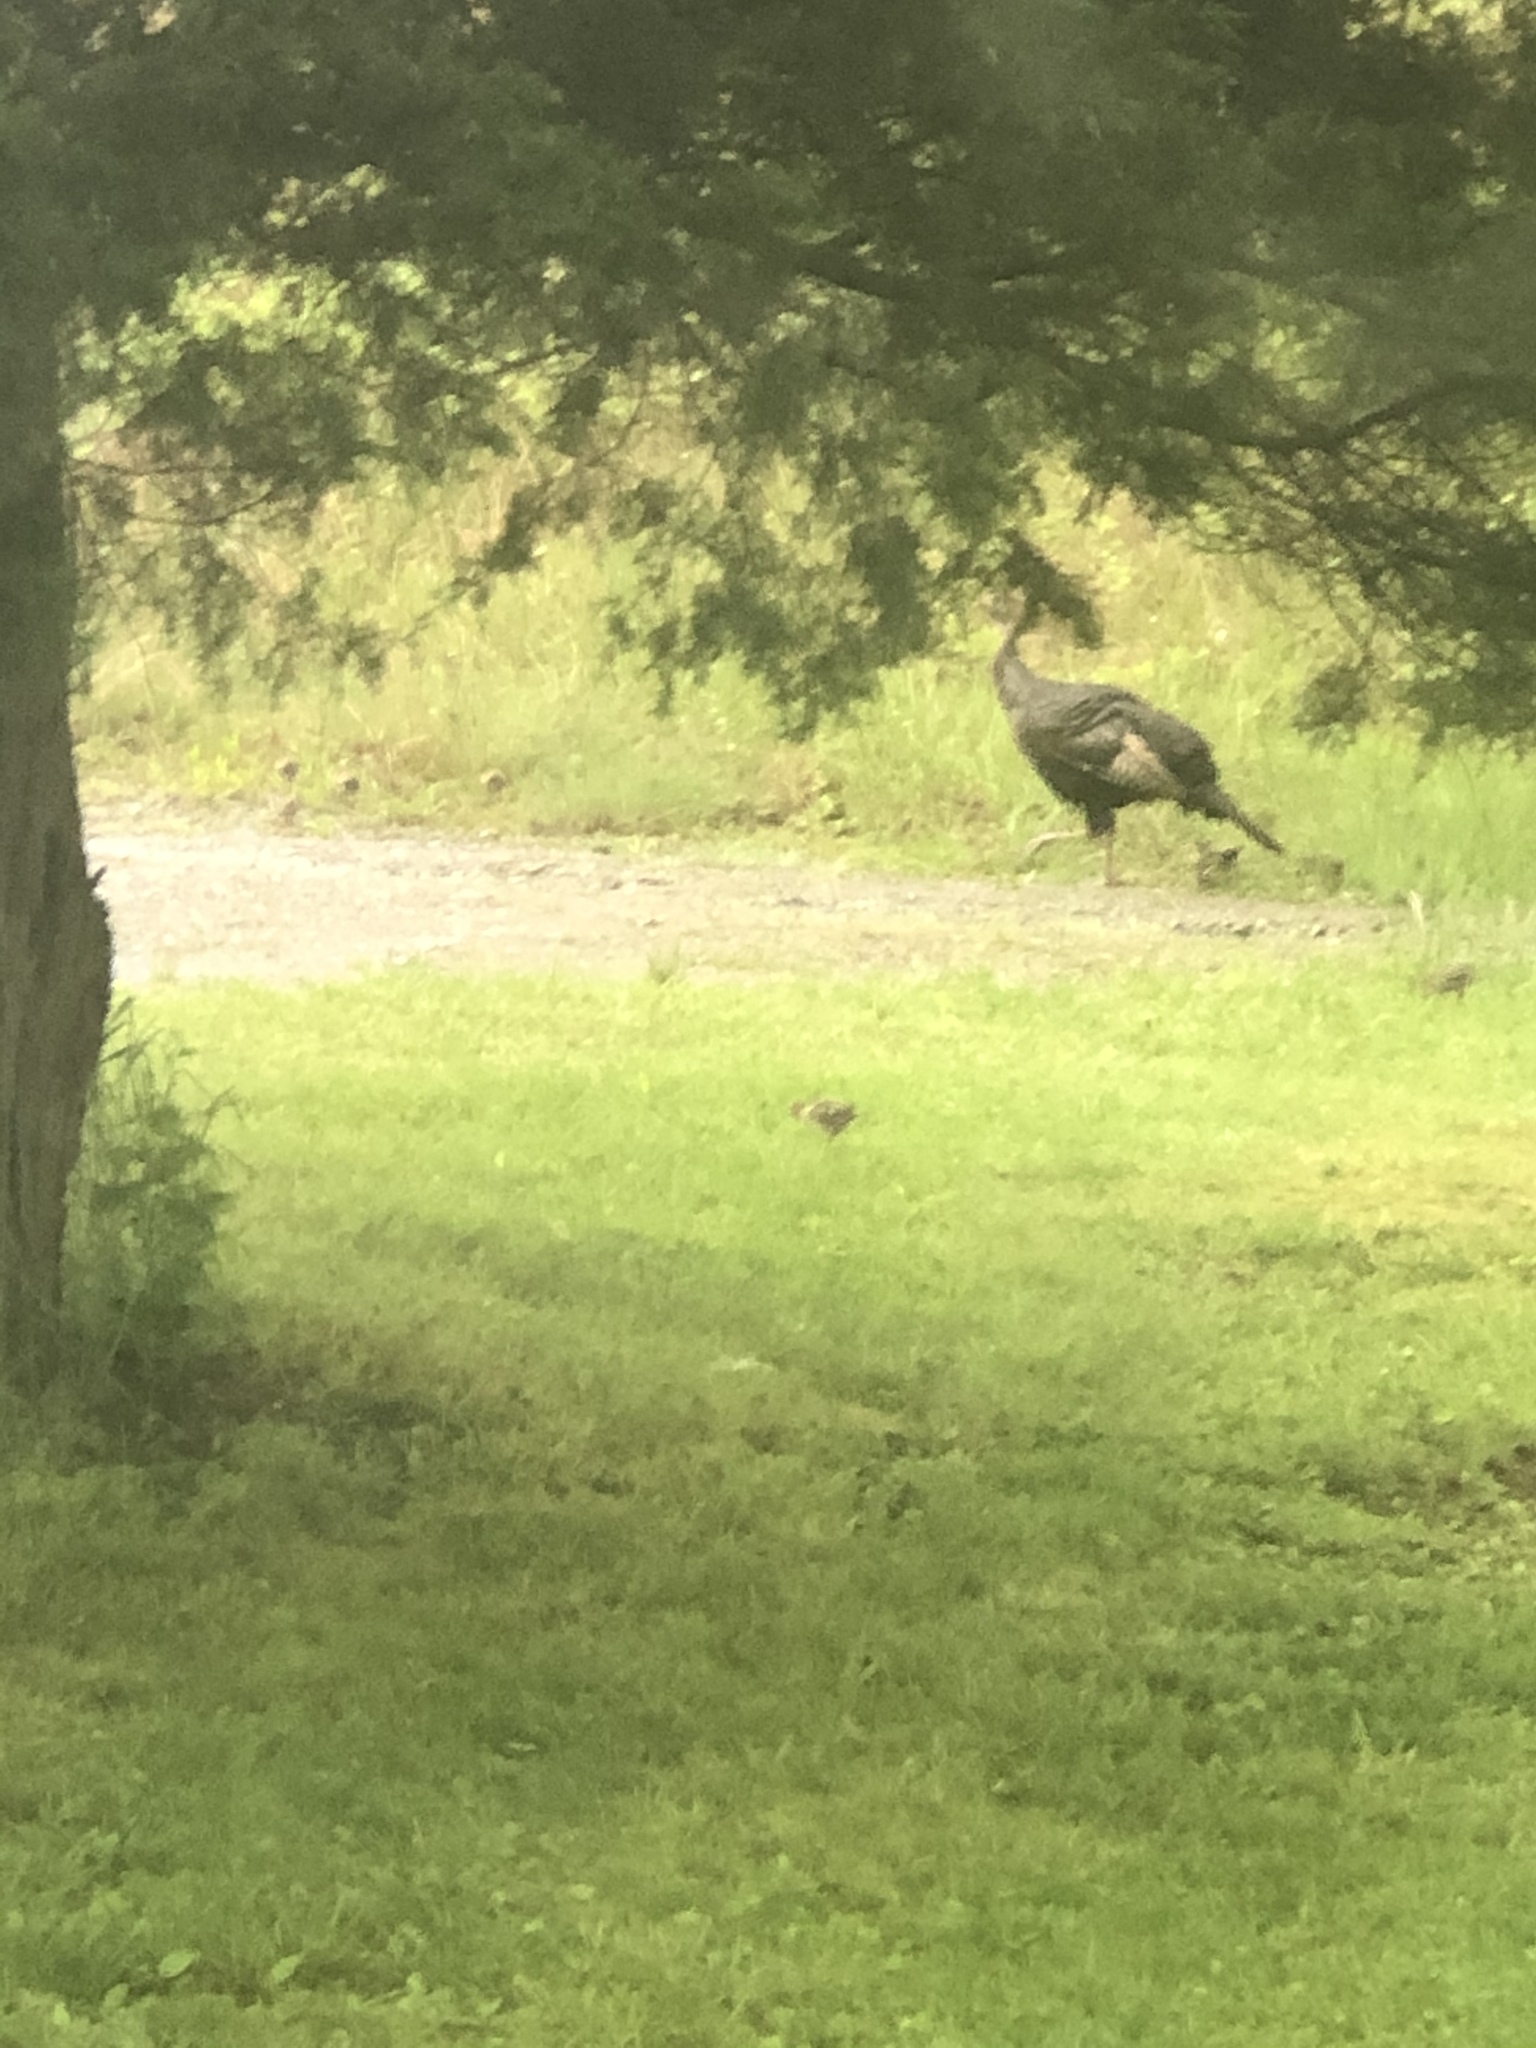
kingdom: Animalia
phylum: Chordata
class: Aves
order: Galliformes
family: Phasianidae
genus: Meleagris
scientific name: Meleagris gallopavo
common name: Wild turkey
